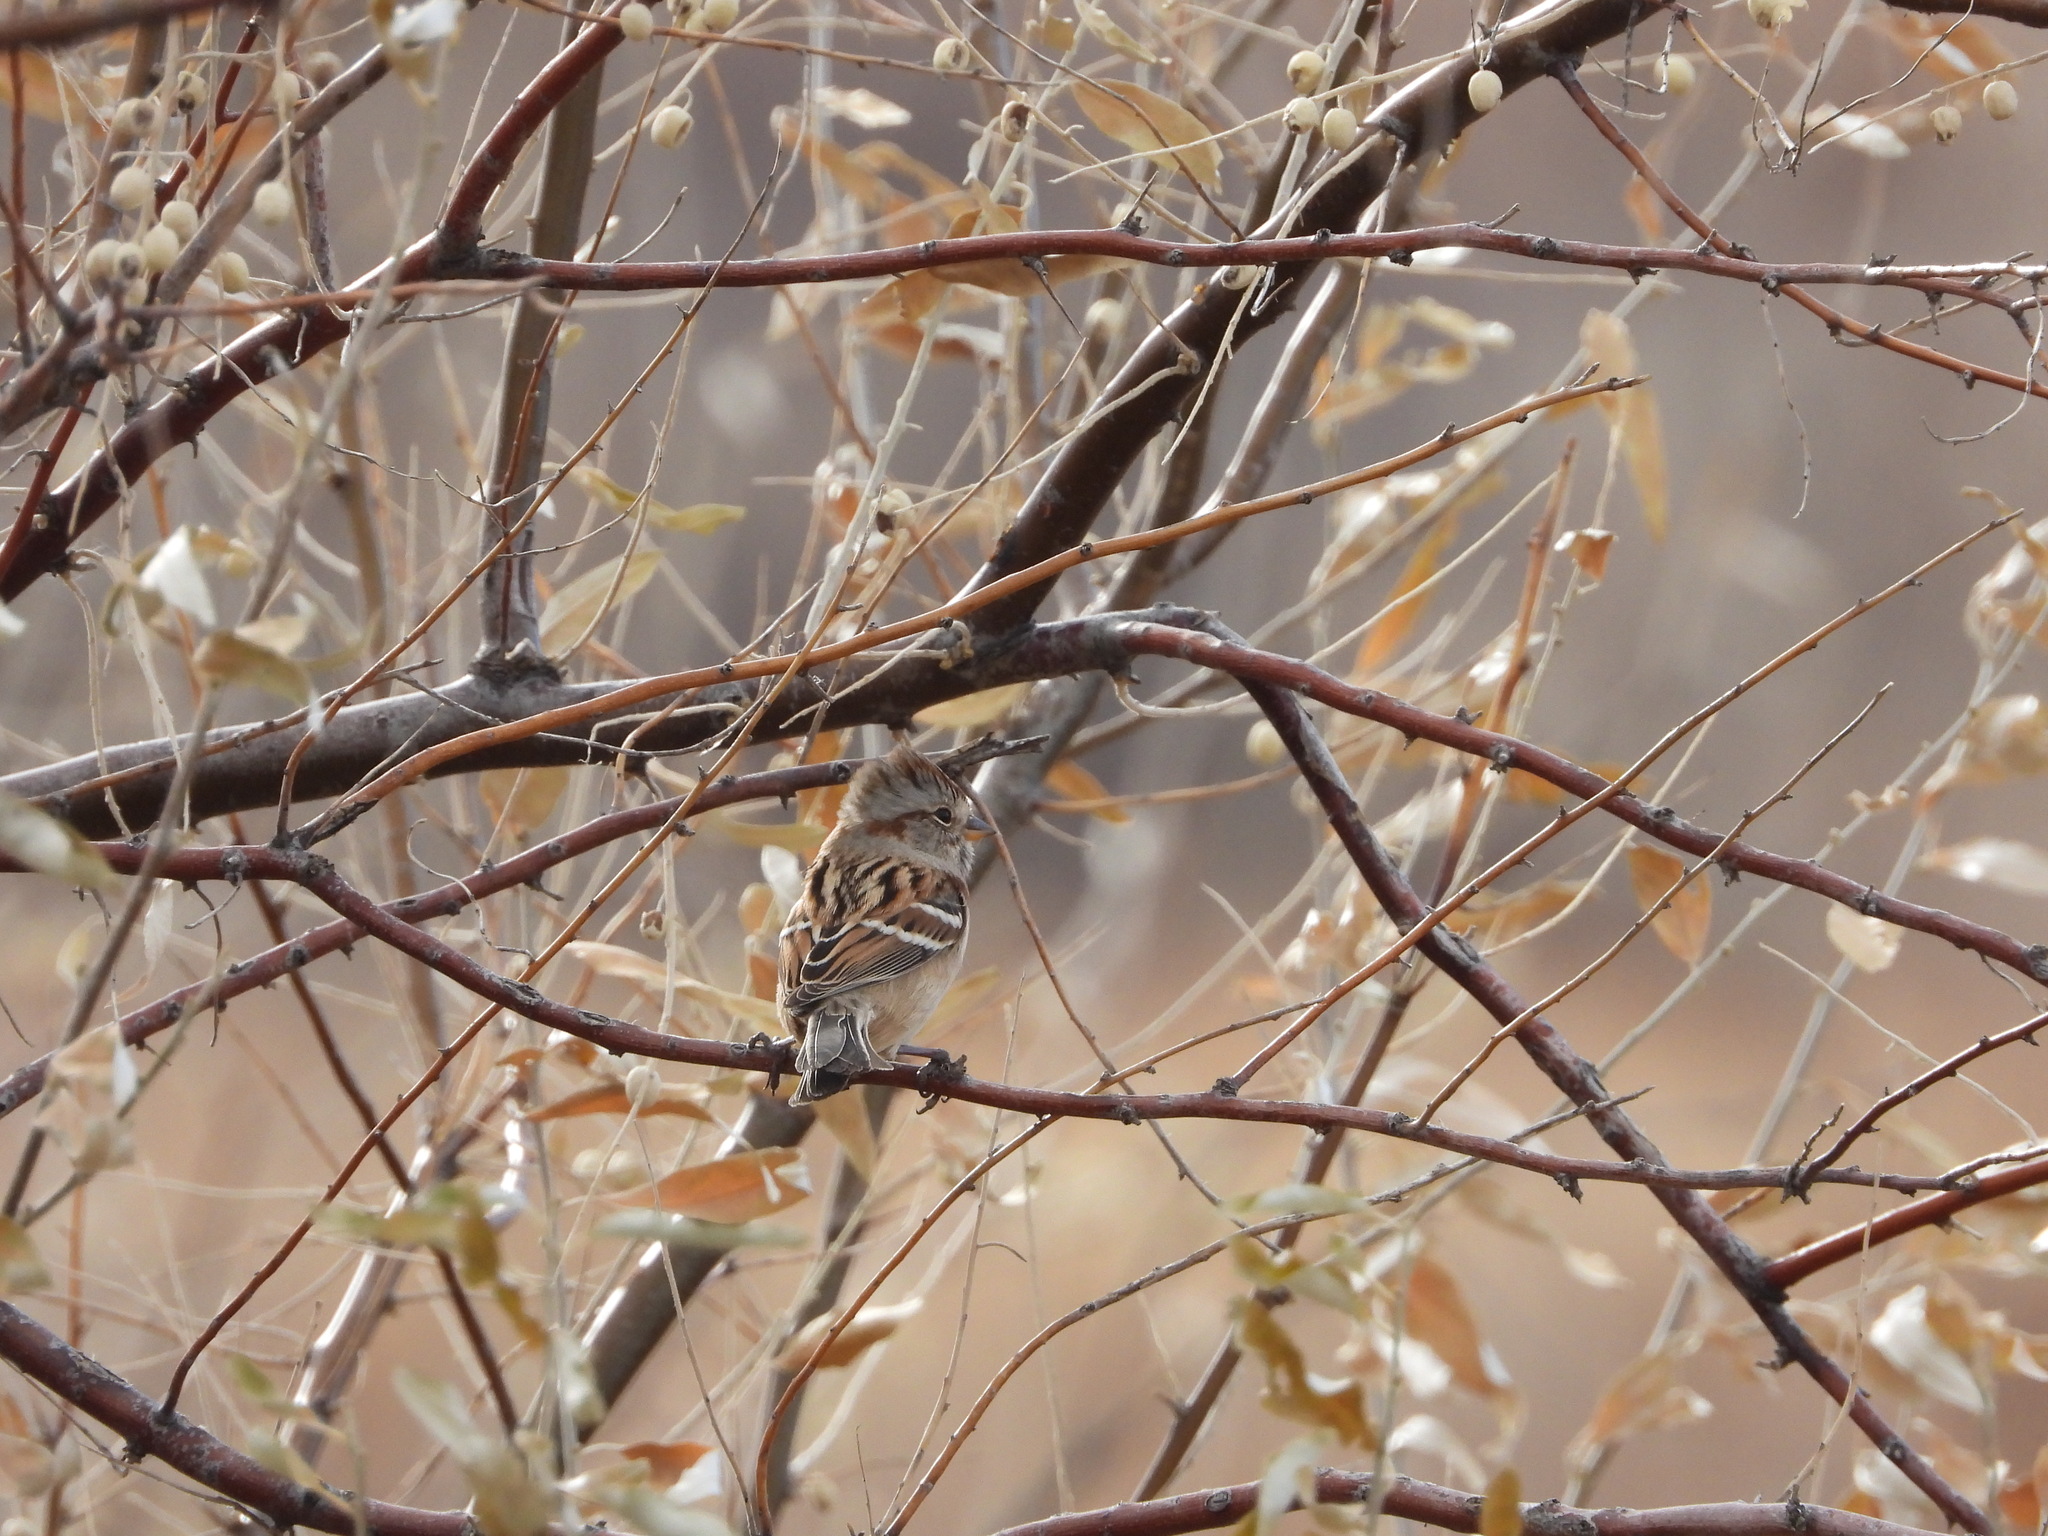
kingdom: Animalia
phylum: Chordata
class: Aves
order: Passeriformes
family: Passerellidae
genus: Spizelloides
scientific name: Spizelloides arborea
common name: American tree sparrow
